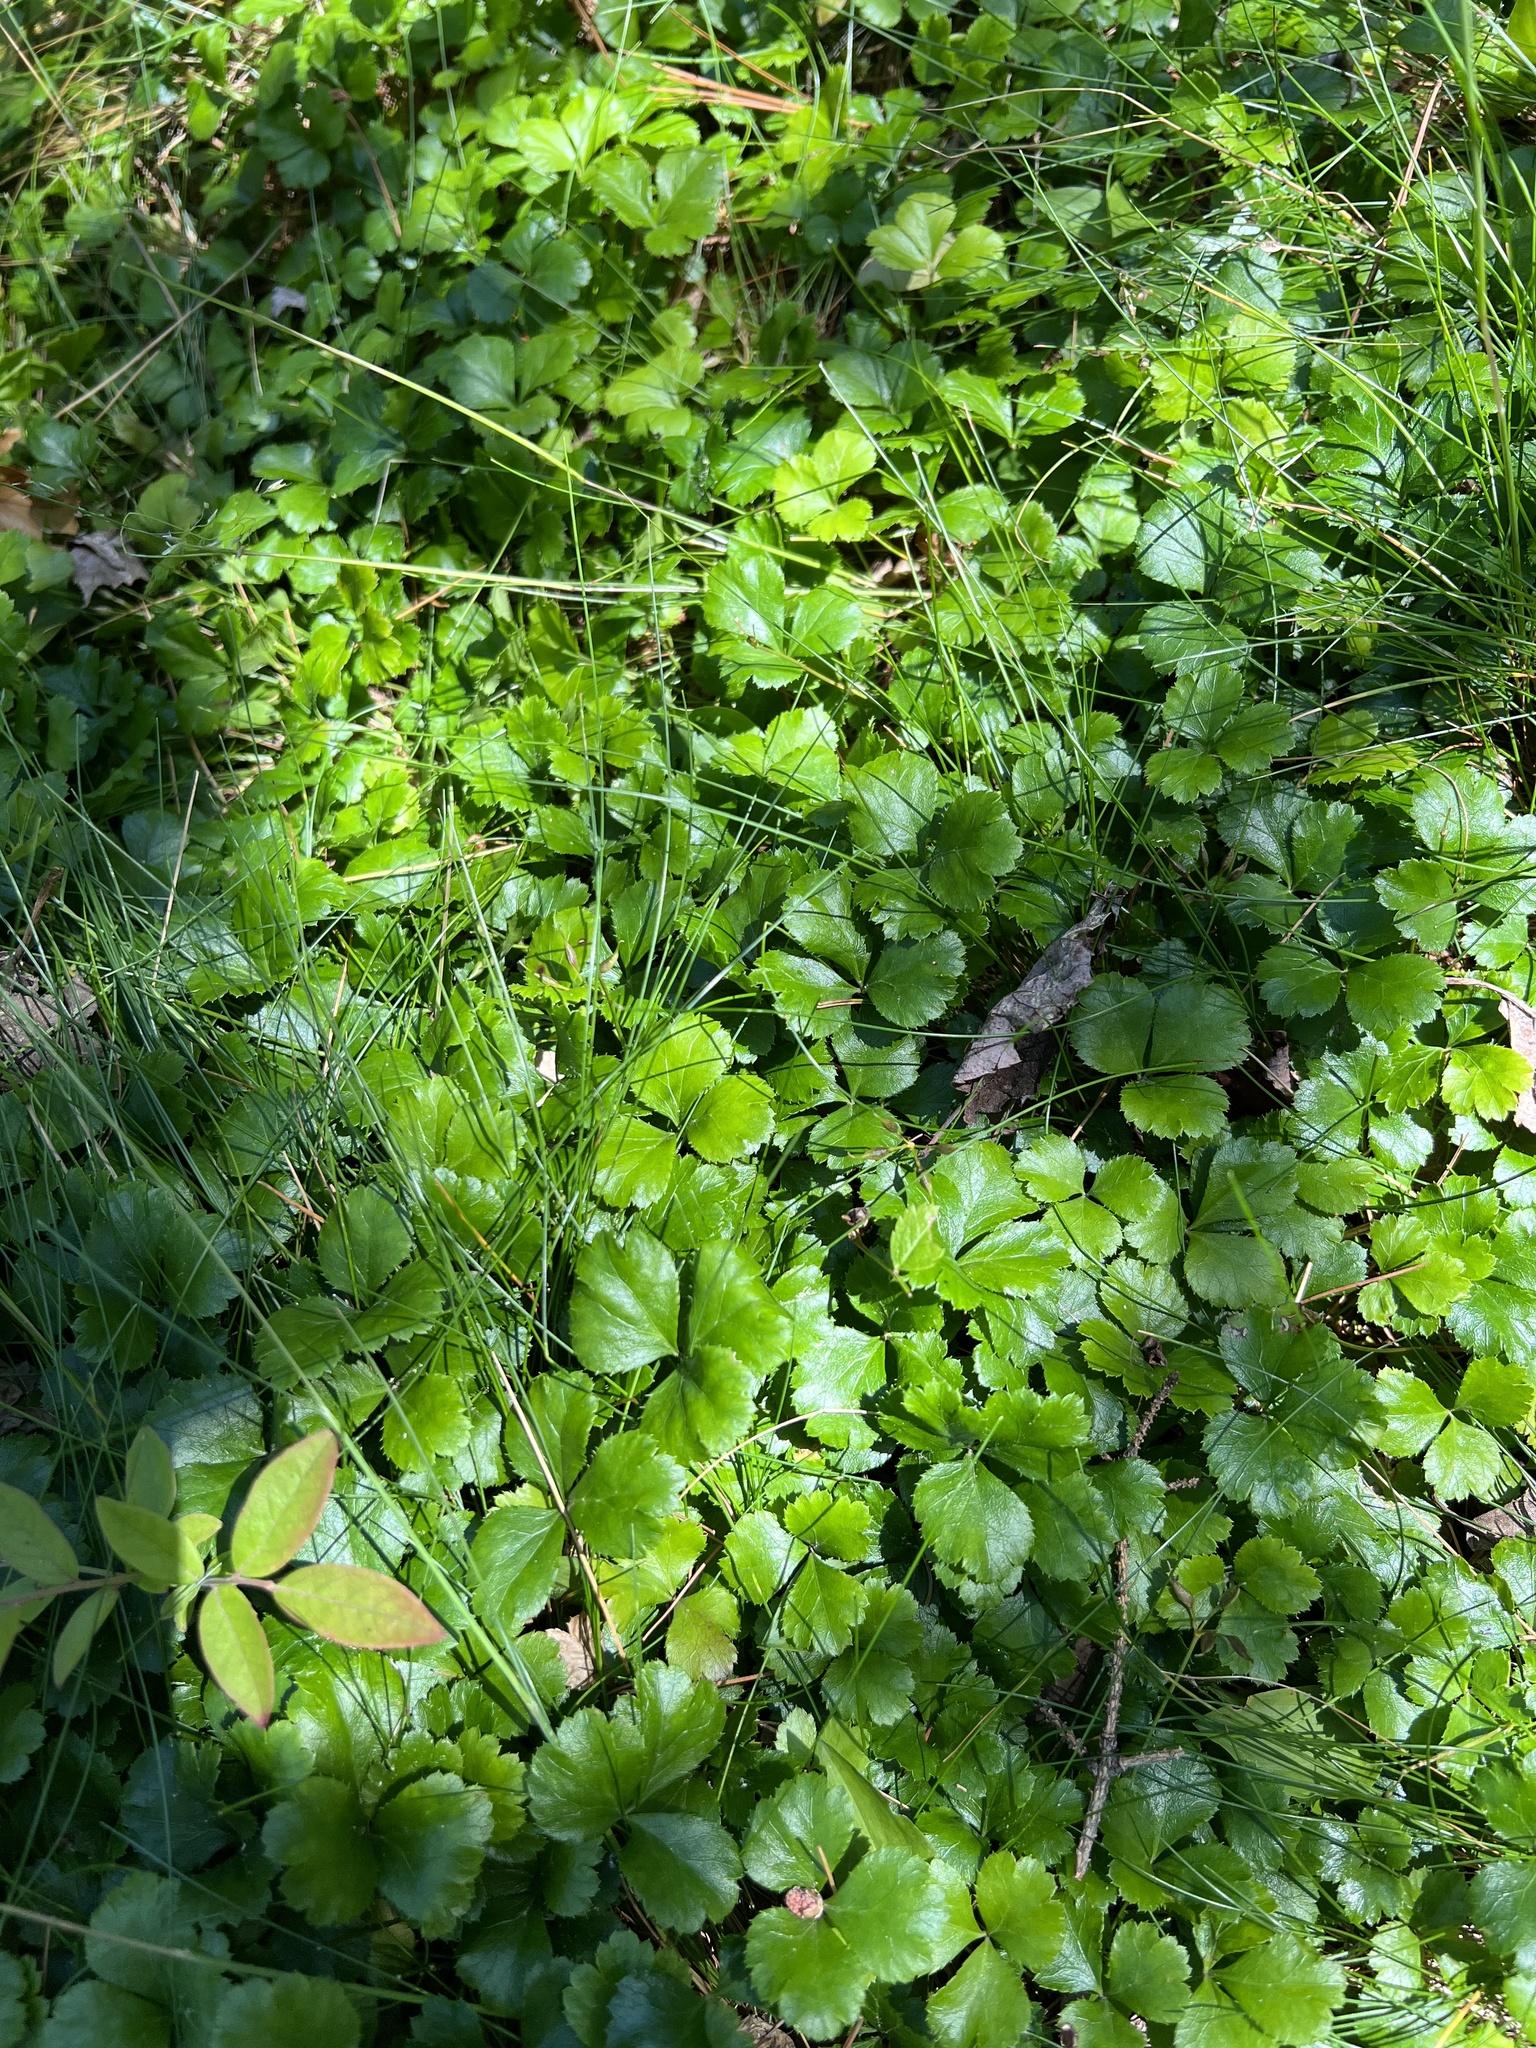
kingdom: Plantae
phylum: Tracheophyta
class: Magnoliopsida
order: Ranunculales
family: Ranunculaceae
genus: Coptis
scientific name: Coptis trifolia
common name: Canker-root
